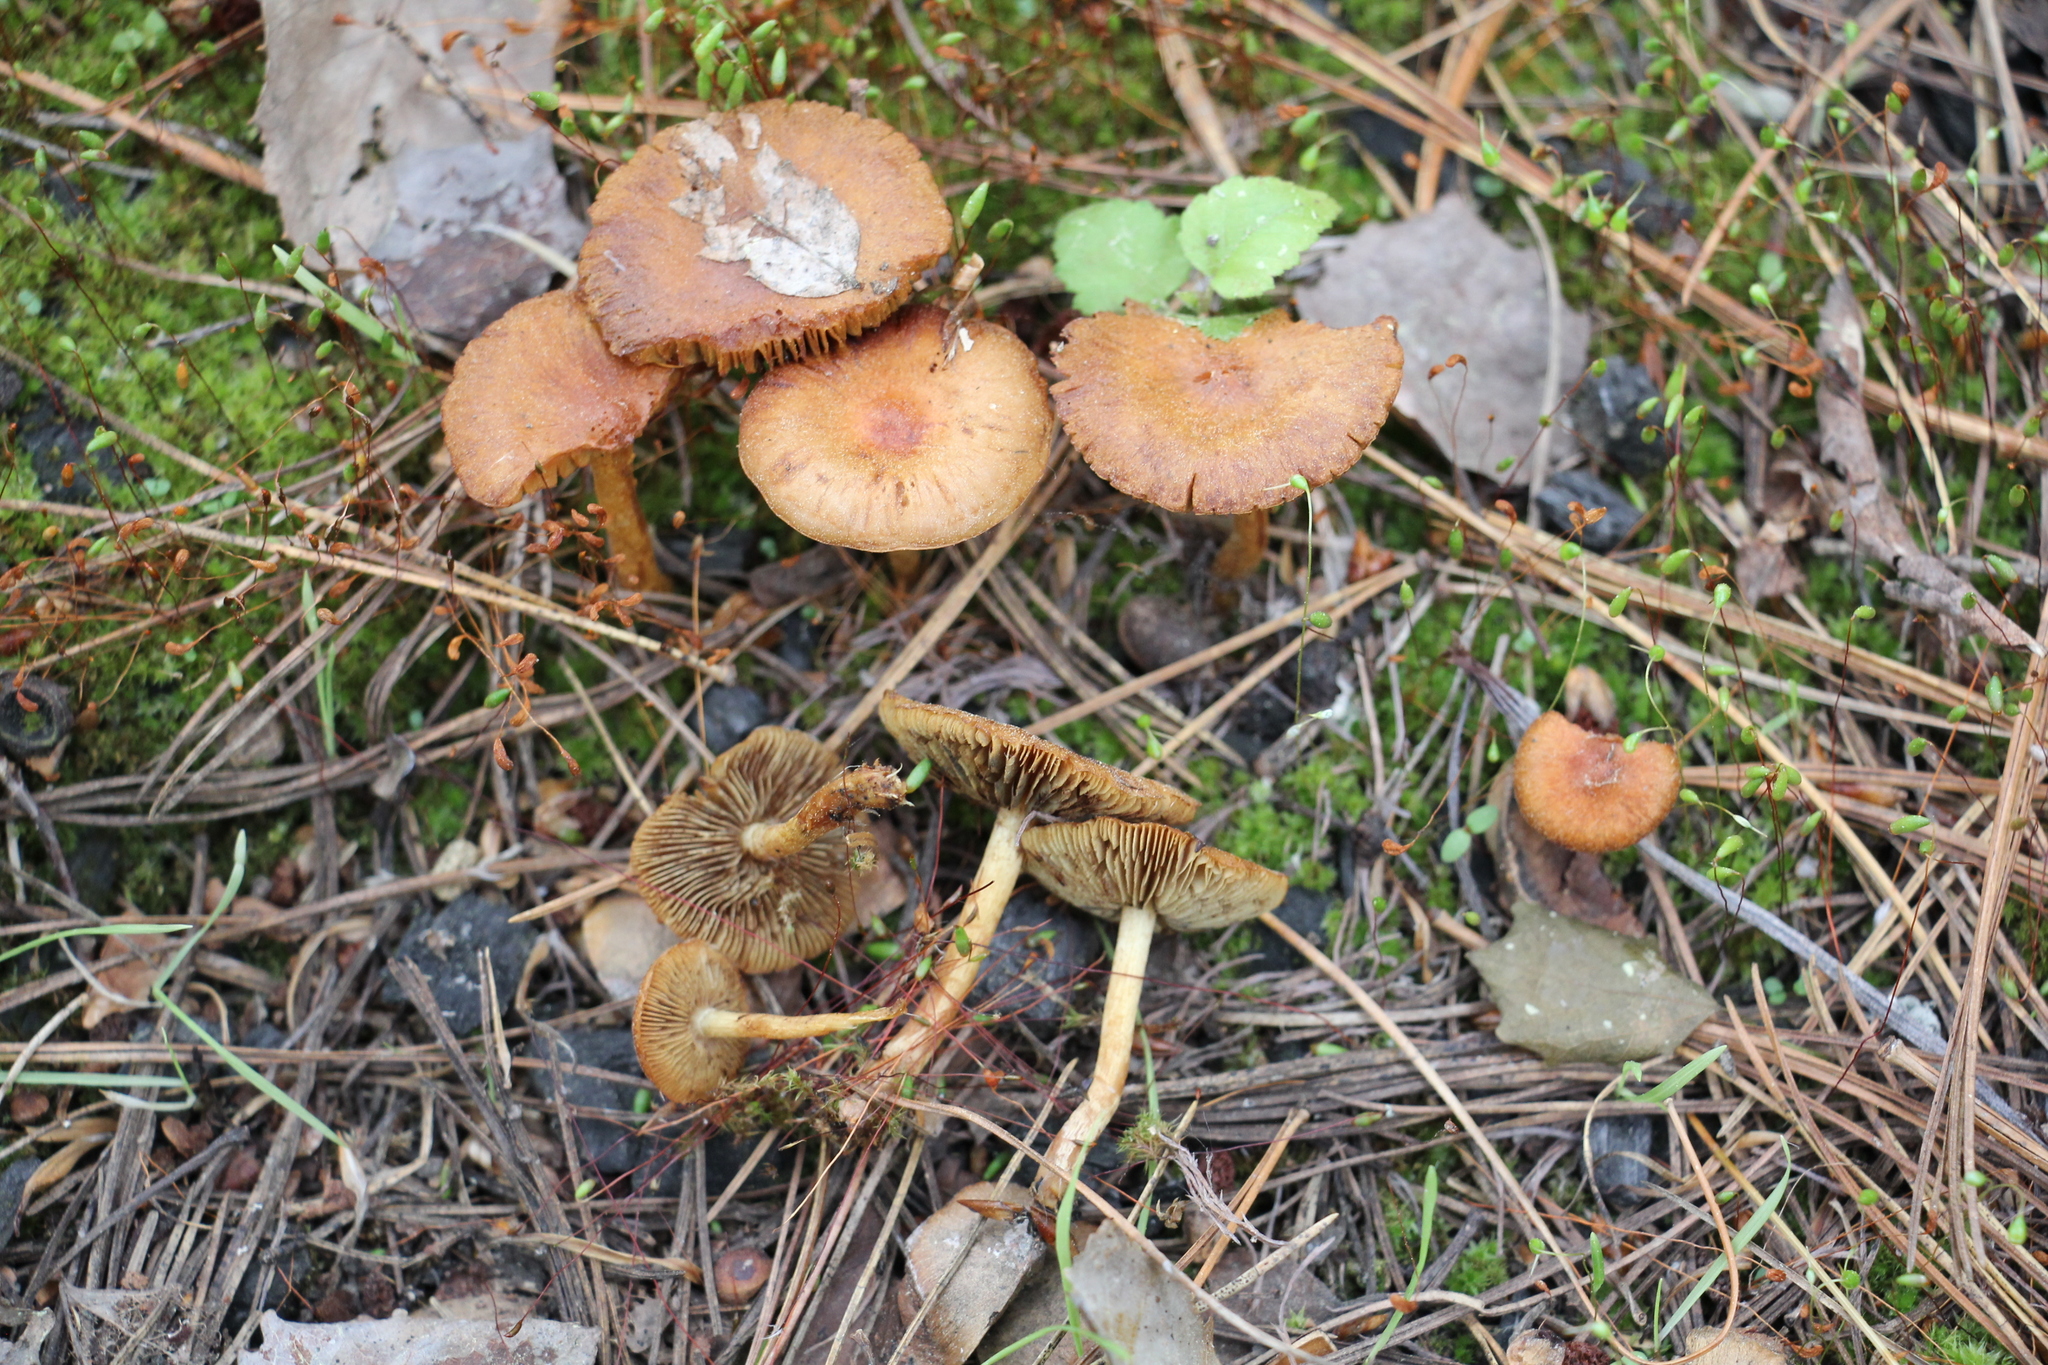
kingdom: Fungi
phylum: Basidiomycota
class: Agaricomycetes
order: Agaricales
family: Strophariaceae
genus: Pholiota
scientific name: Pholiota carbonaria
